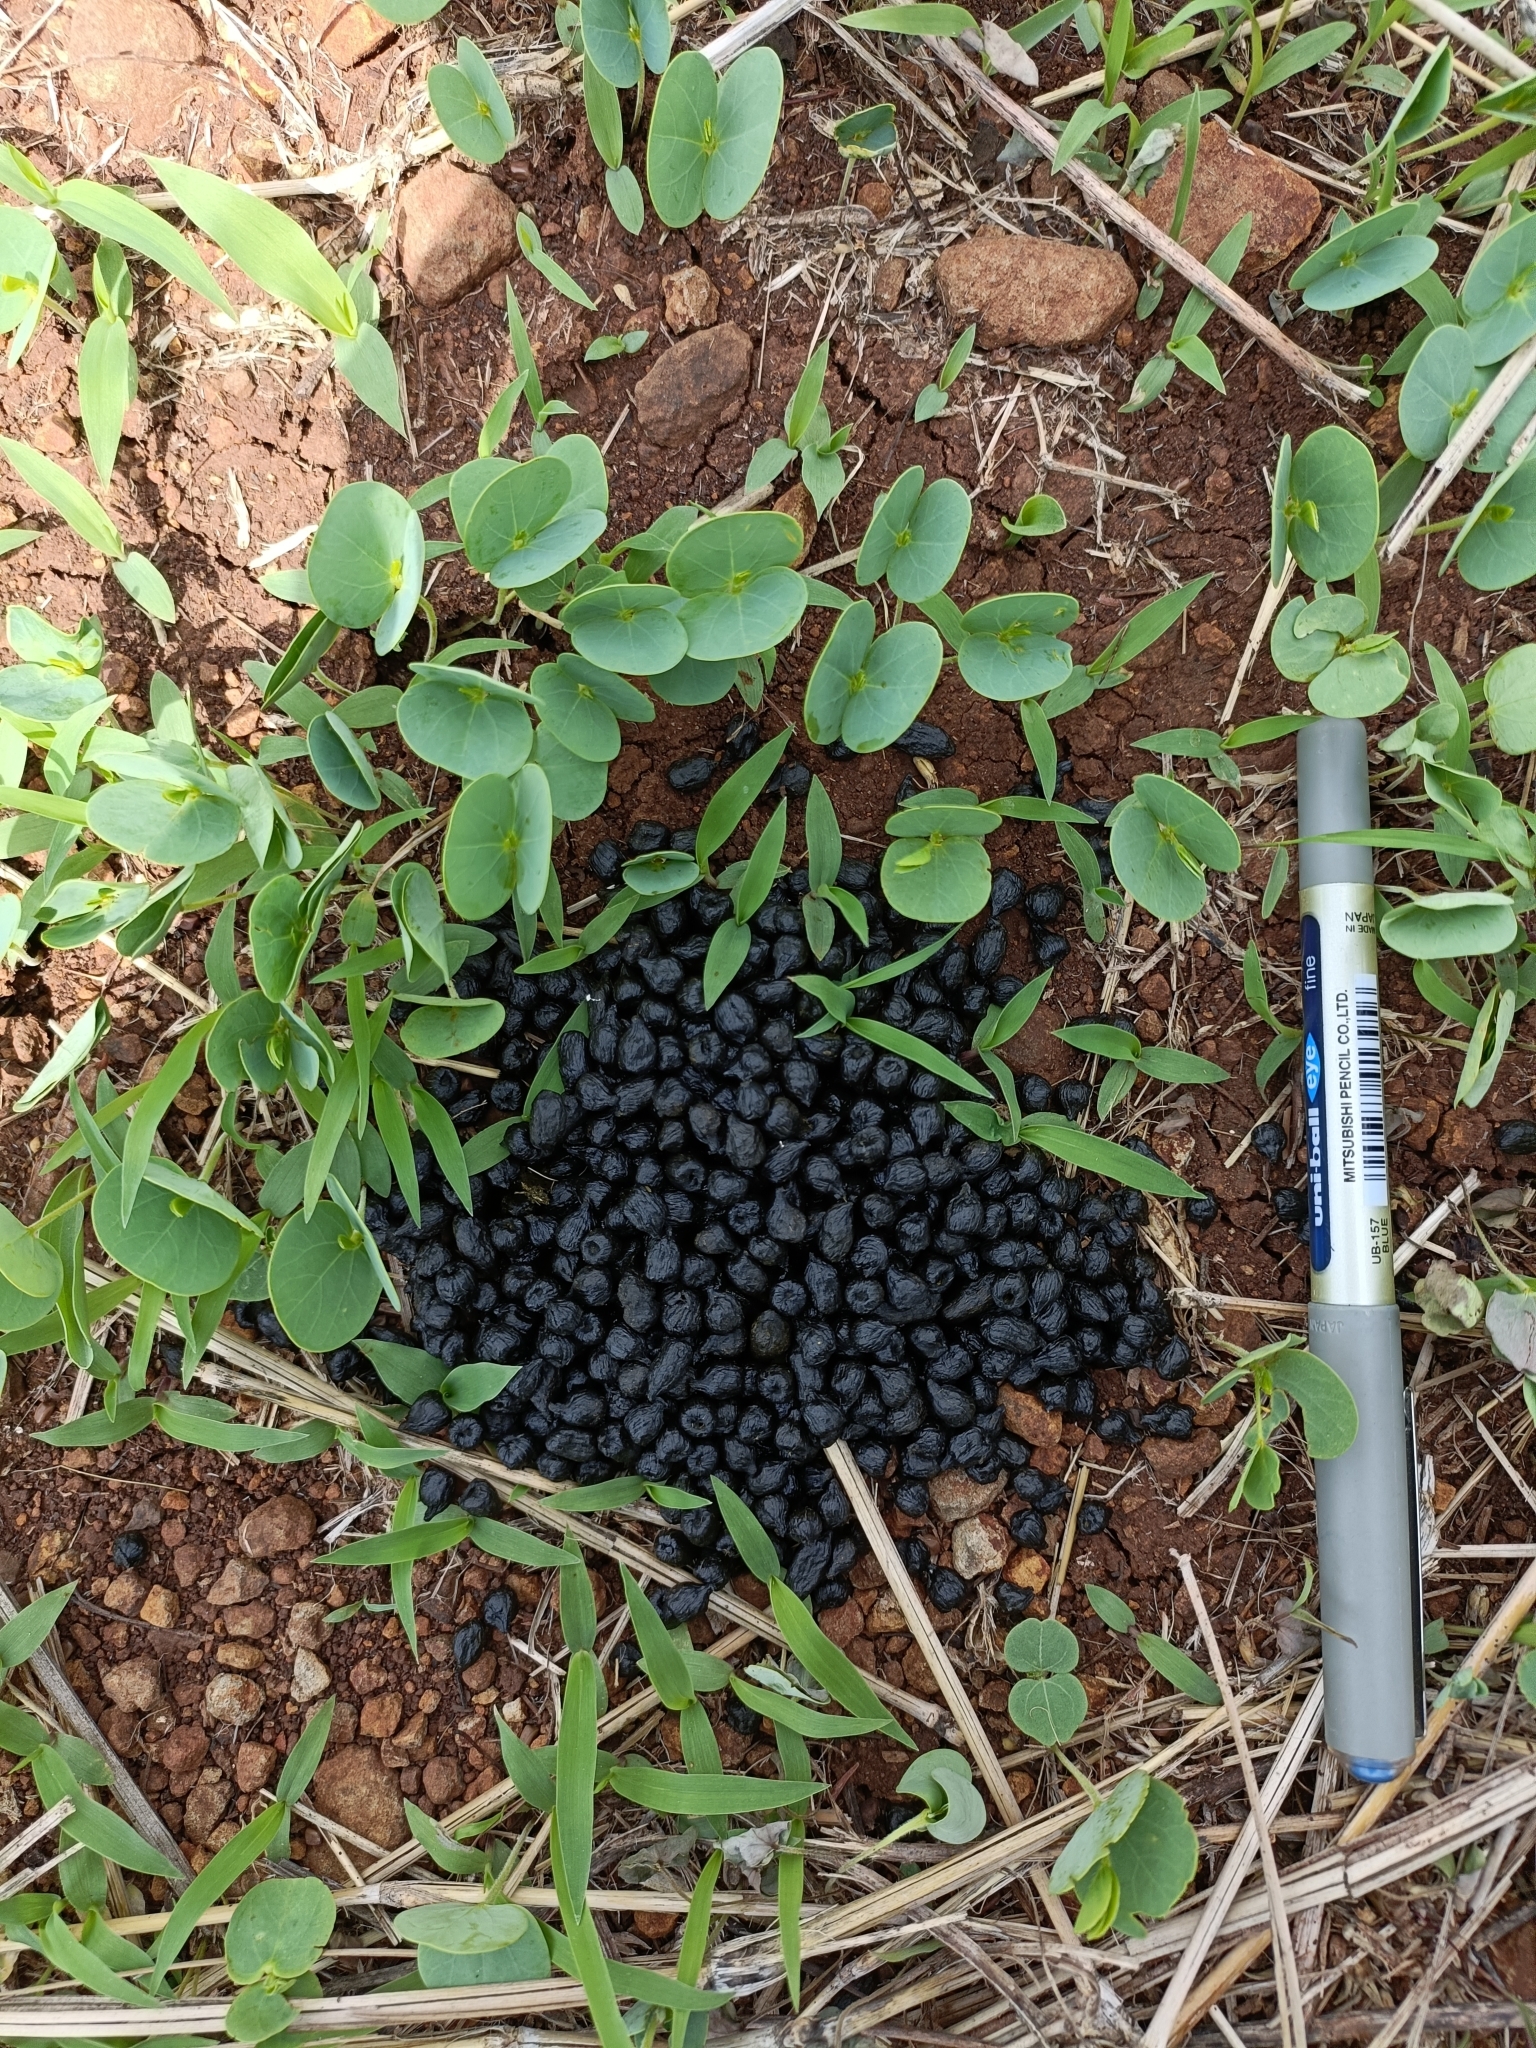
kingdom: Animalia
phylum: Chordata
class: Mammalia
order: Artiodactyla
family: Bovidae
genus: Gazella
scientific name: Gazella bennettii
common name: Indian gazelle
